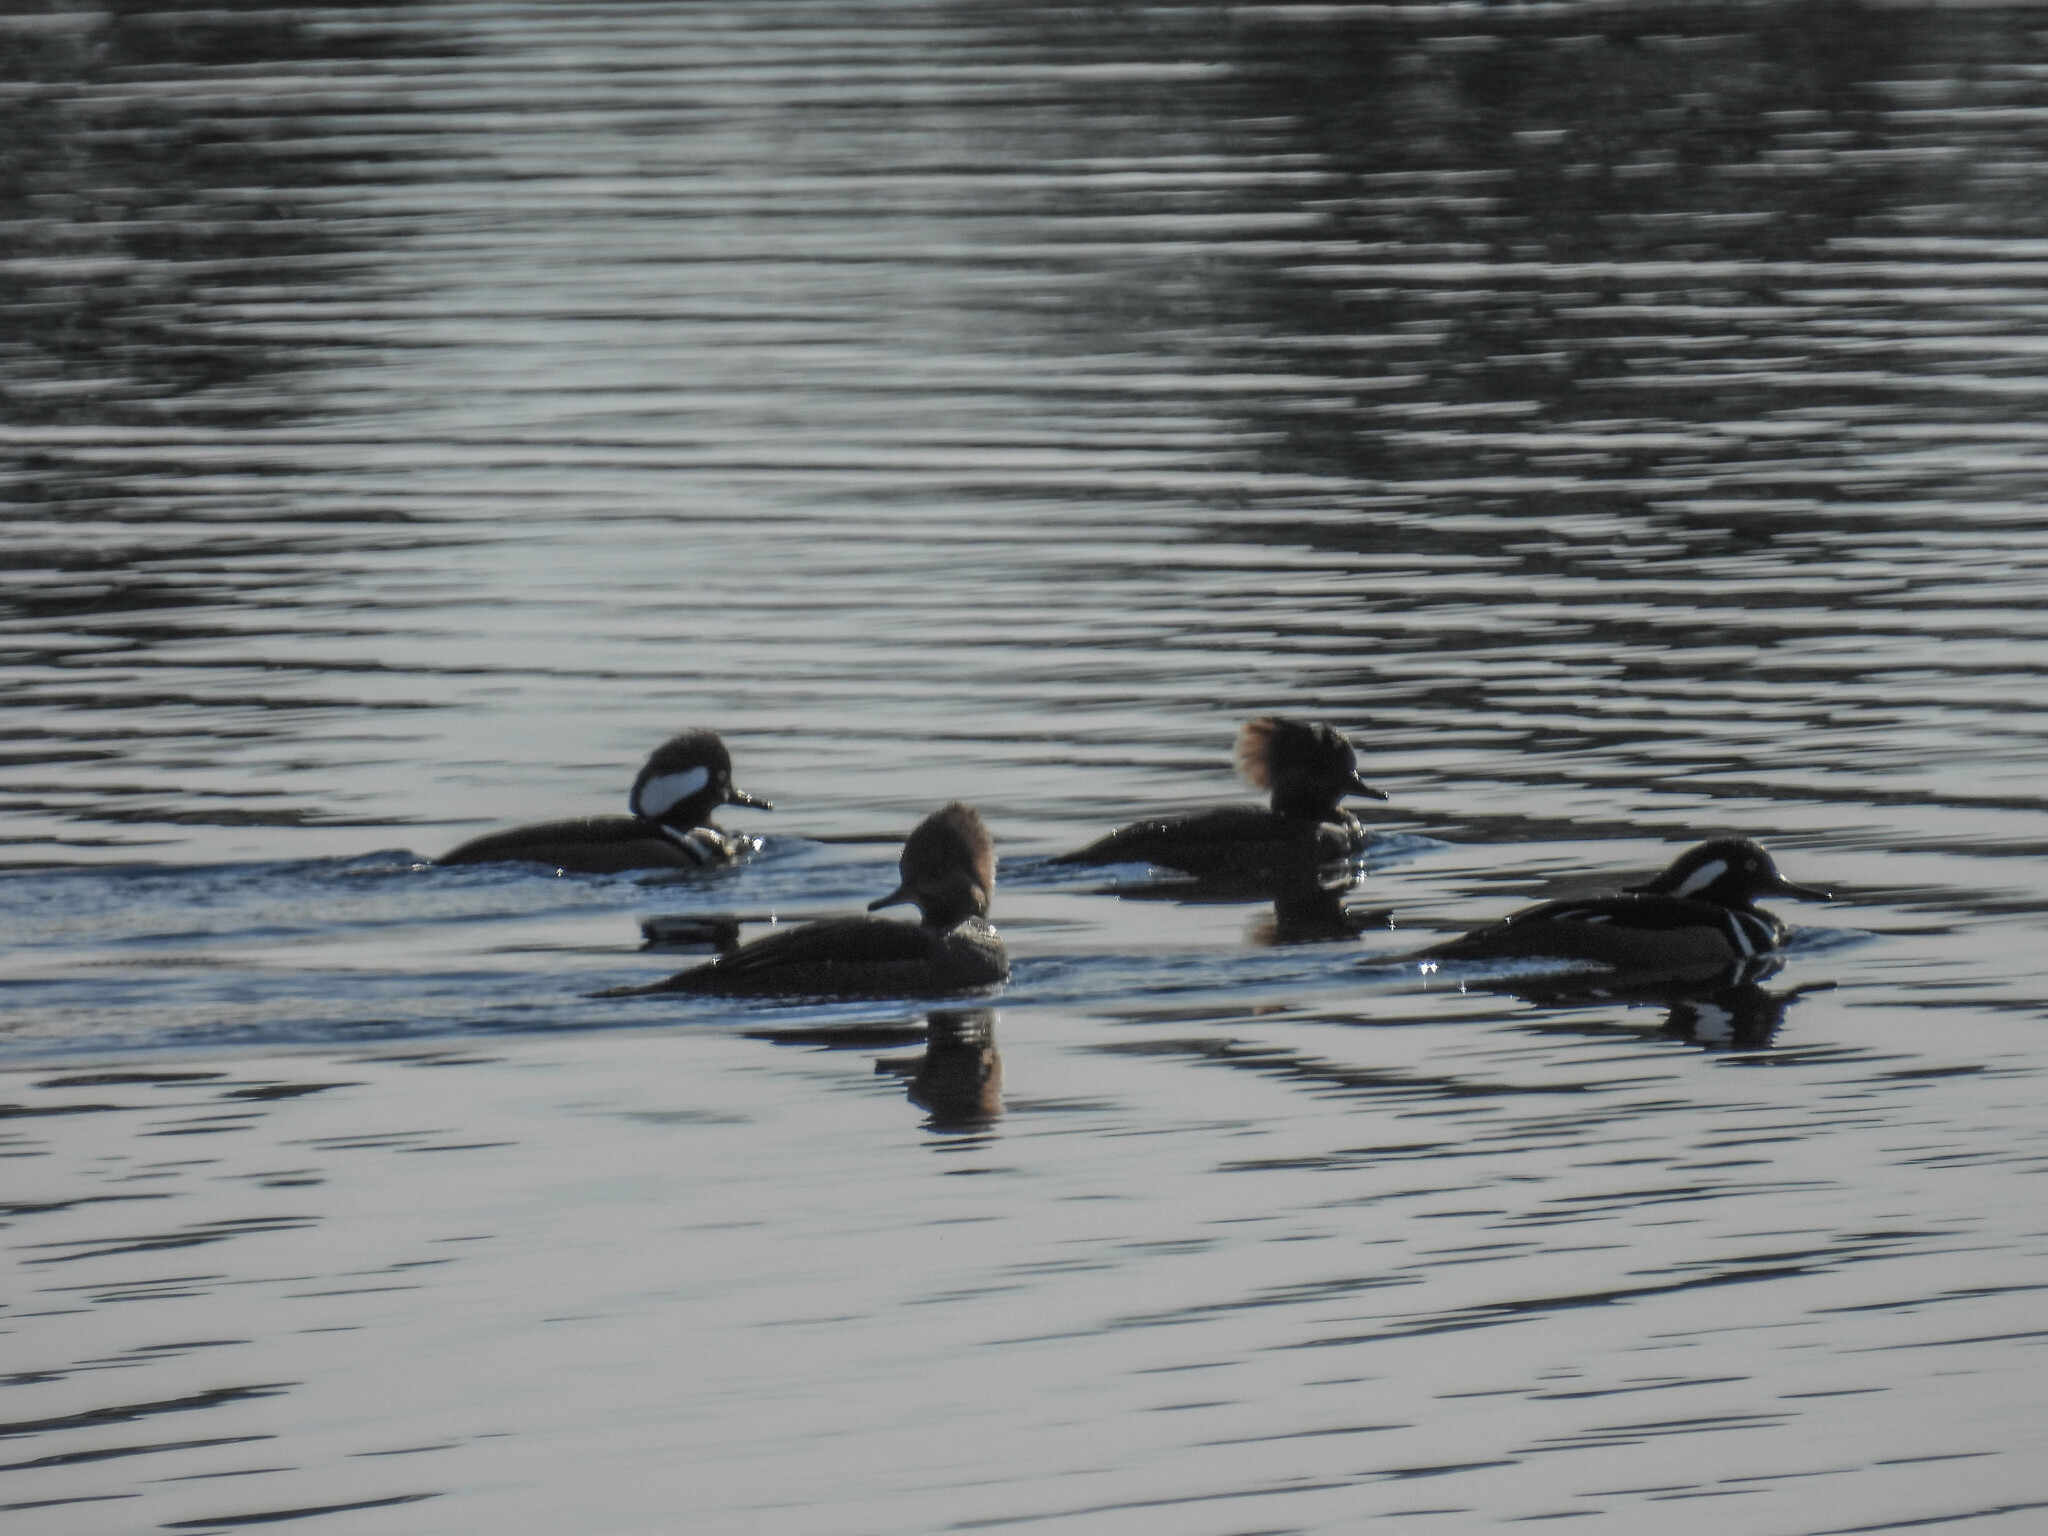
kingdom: Animalia
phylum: Chordata
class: Aves
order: Anseriformes
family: Anatidae
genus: Lophodytes
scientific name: Lophodytes cucullatus
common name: Hooded merganser
